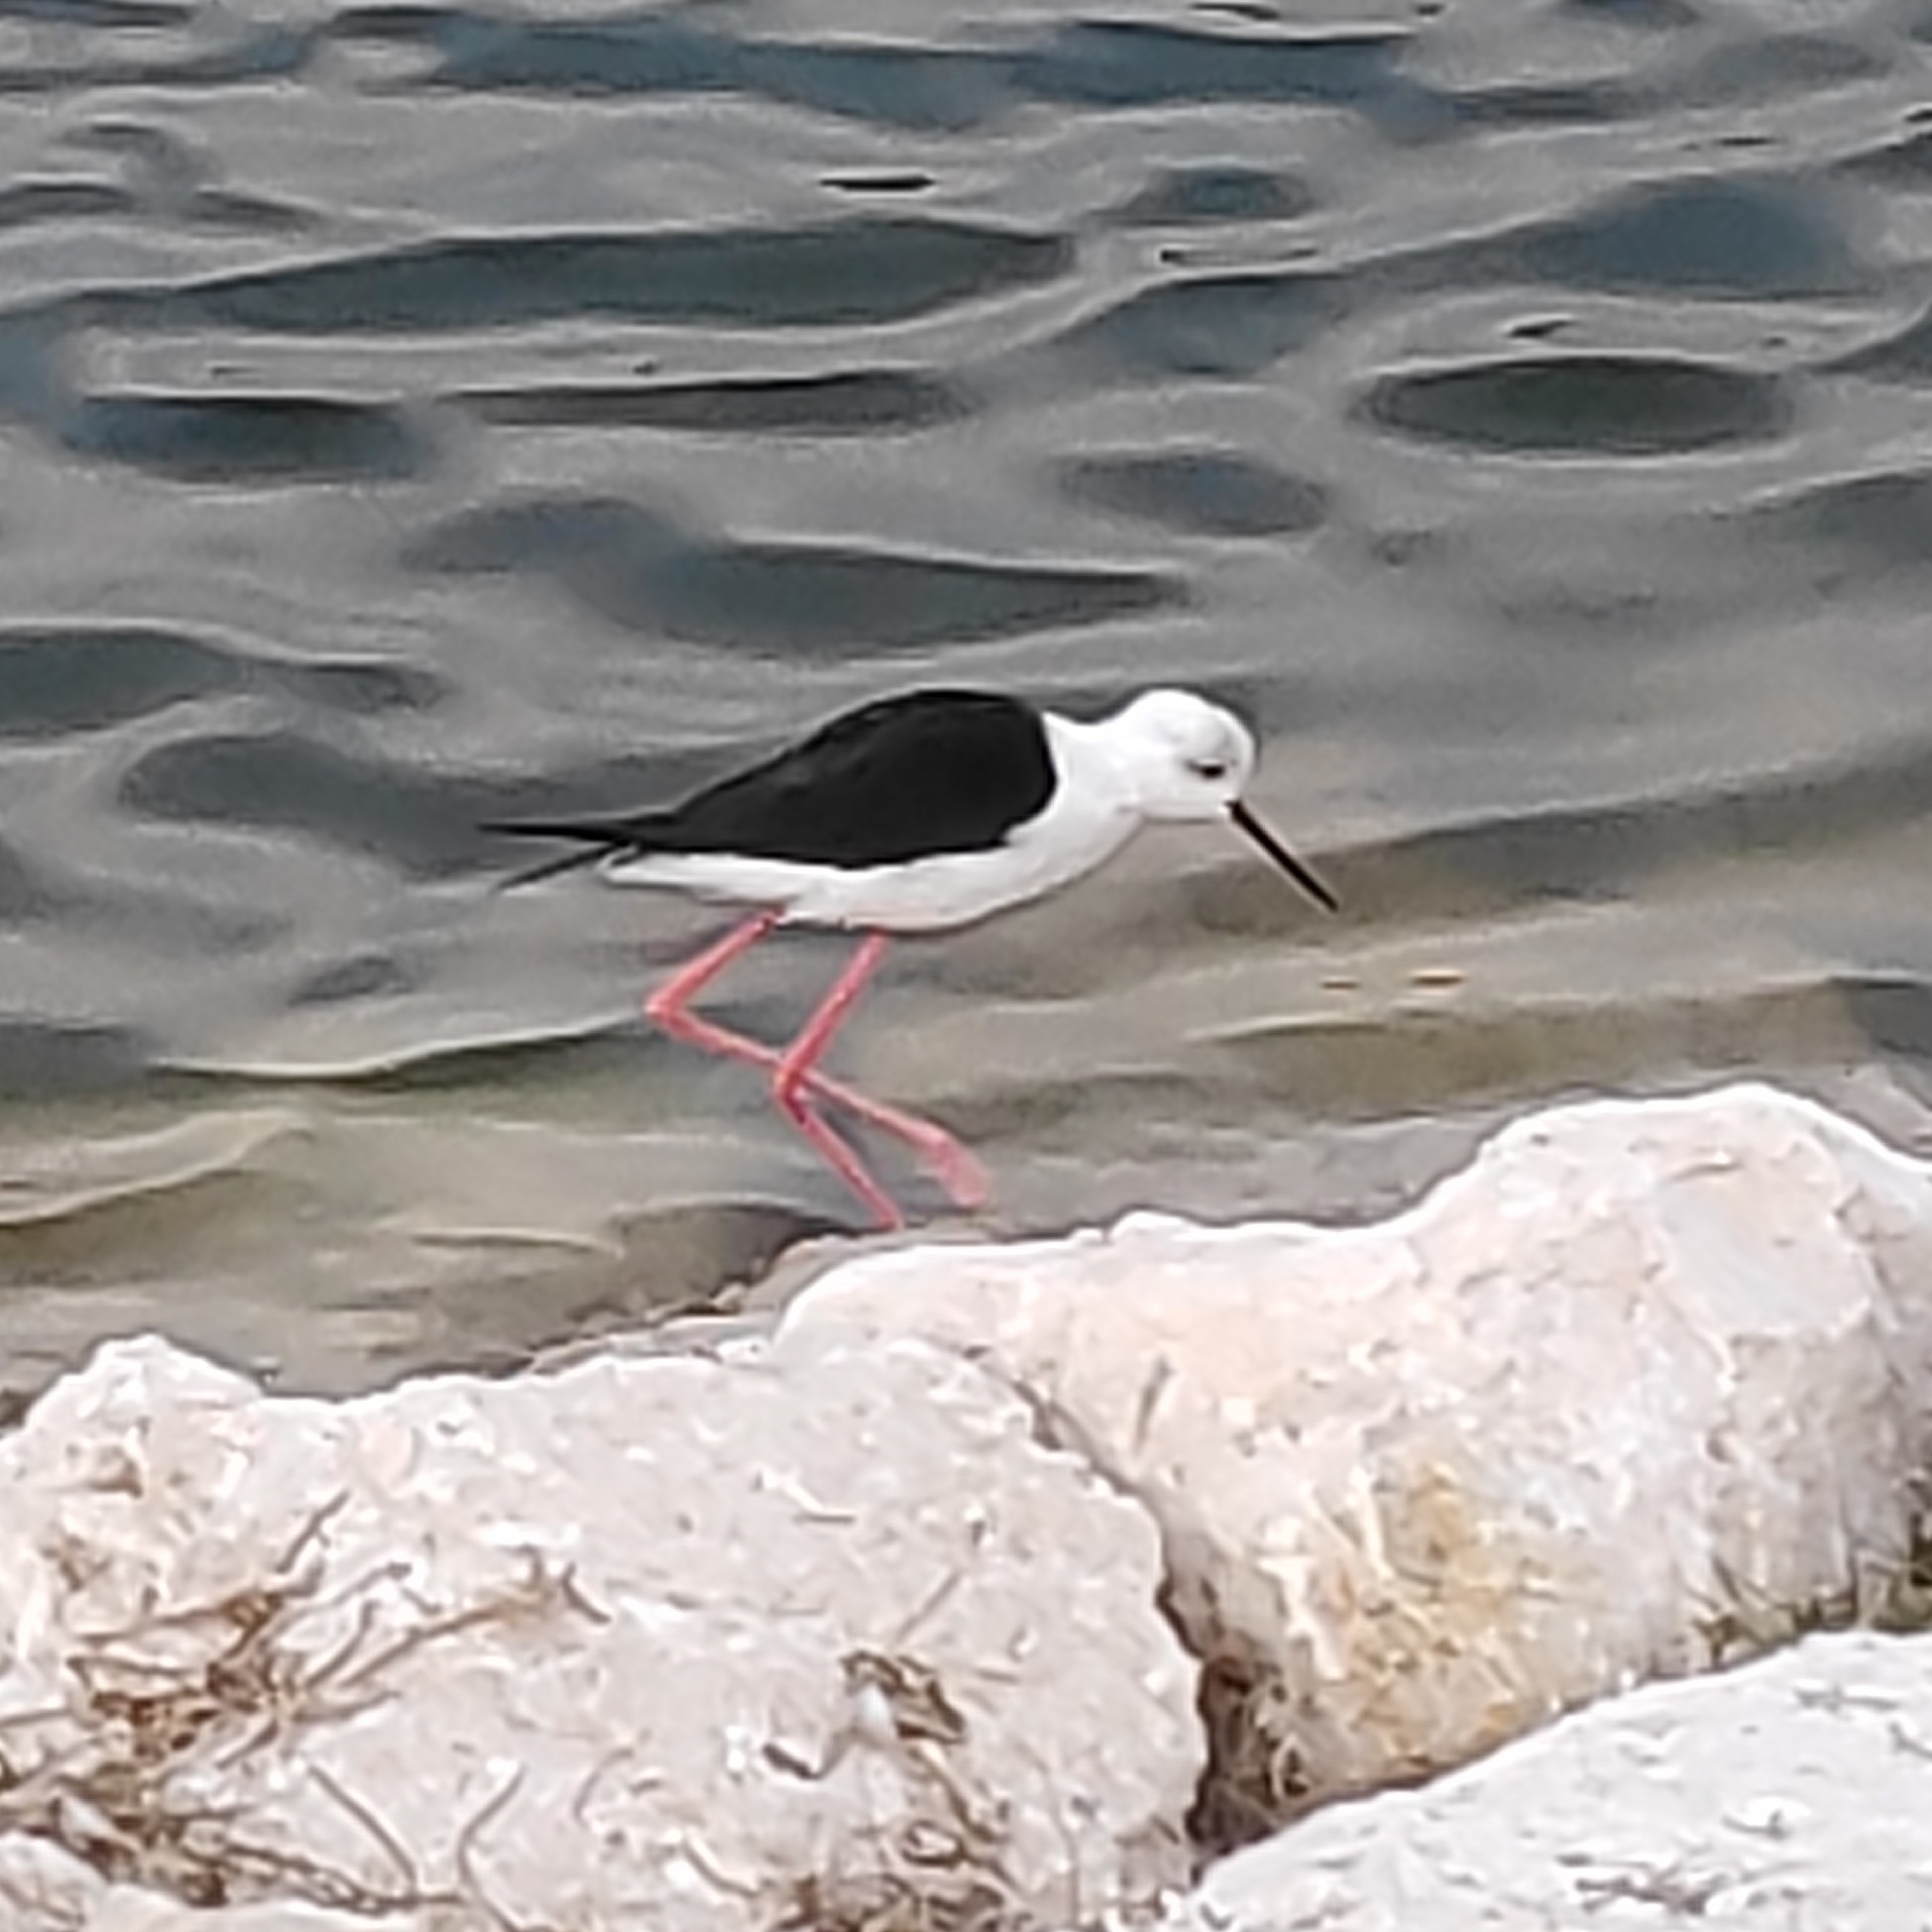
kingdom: Animalia
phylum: Chordata
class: Aves
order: Charadriiformes
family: Recurvirostridae
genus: Himantopus
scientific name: Himantopus himantopus
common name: Black-winged stilt
